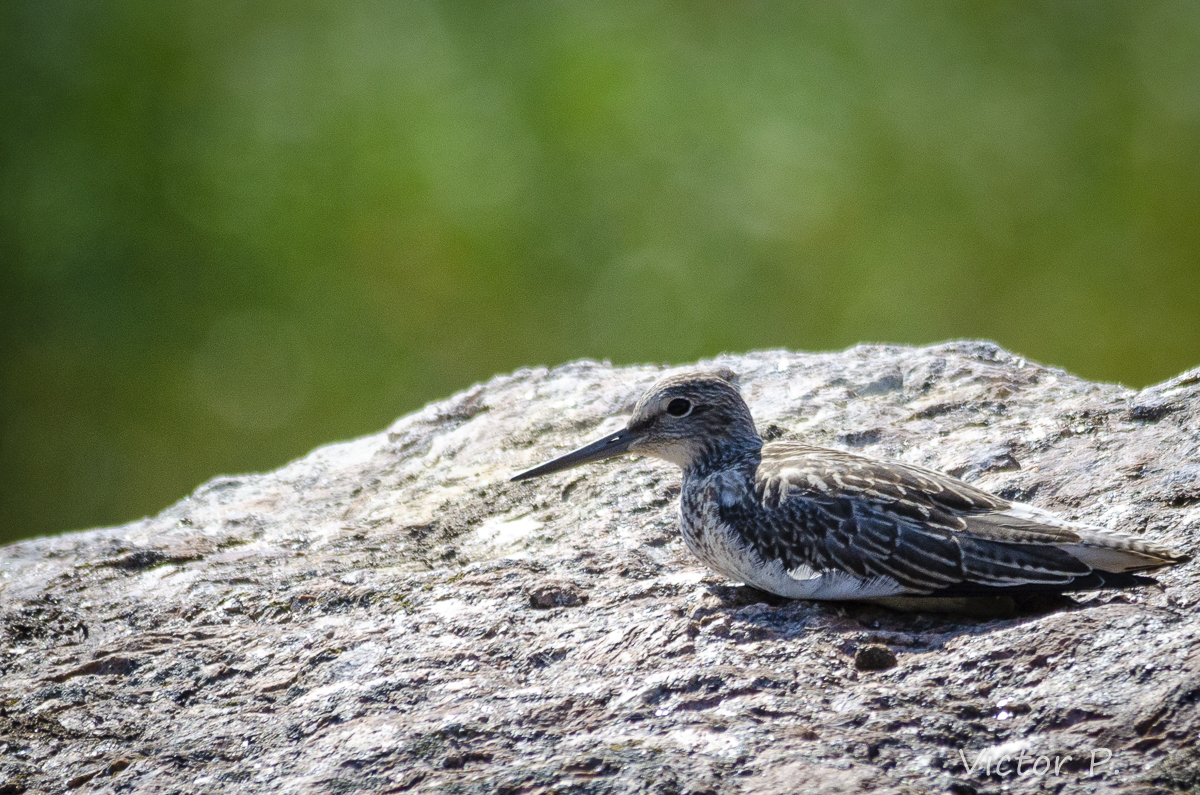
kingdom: Animalia
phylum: Chordata
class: Aves
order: Charadriiformes
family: Scolopacidae
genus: Tringa
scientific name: Tringa nebularia
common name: Common greenshank
